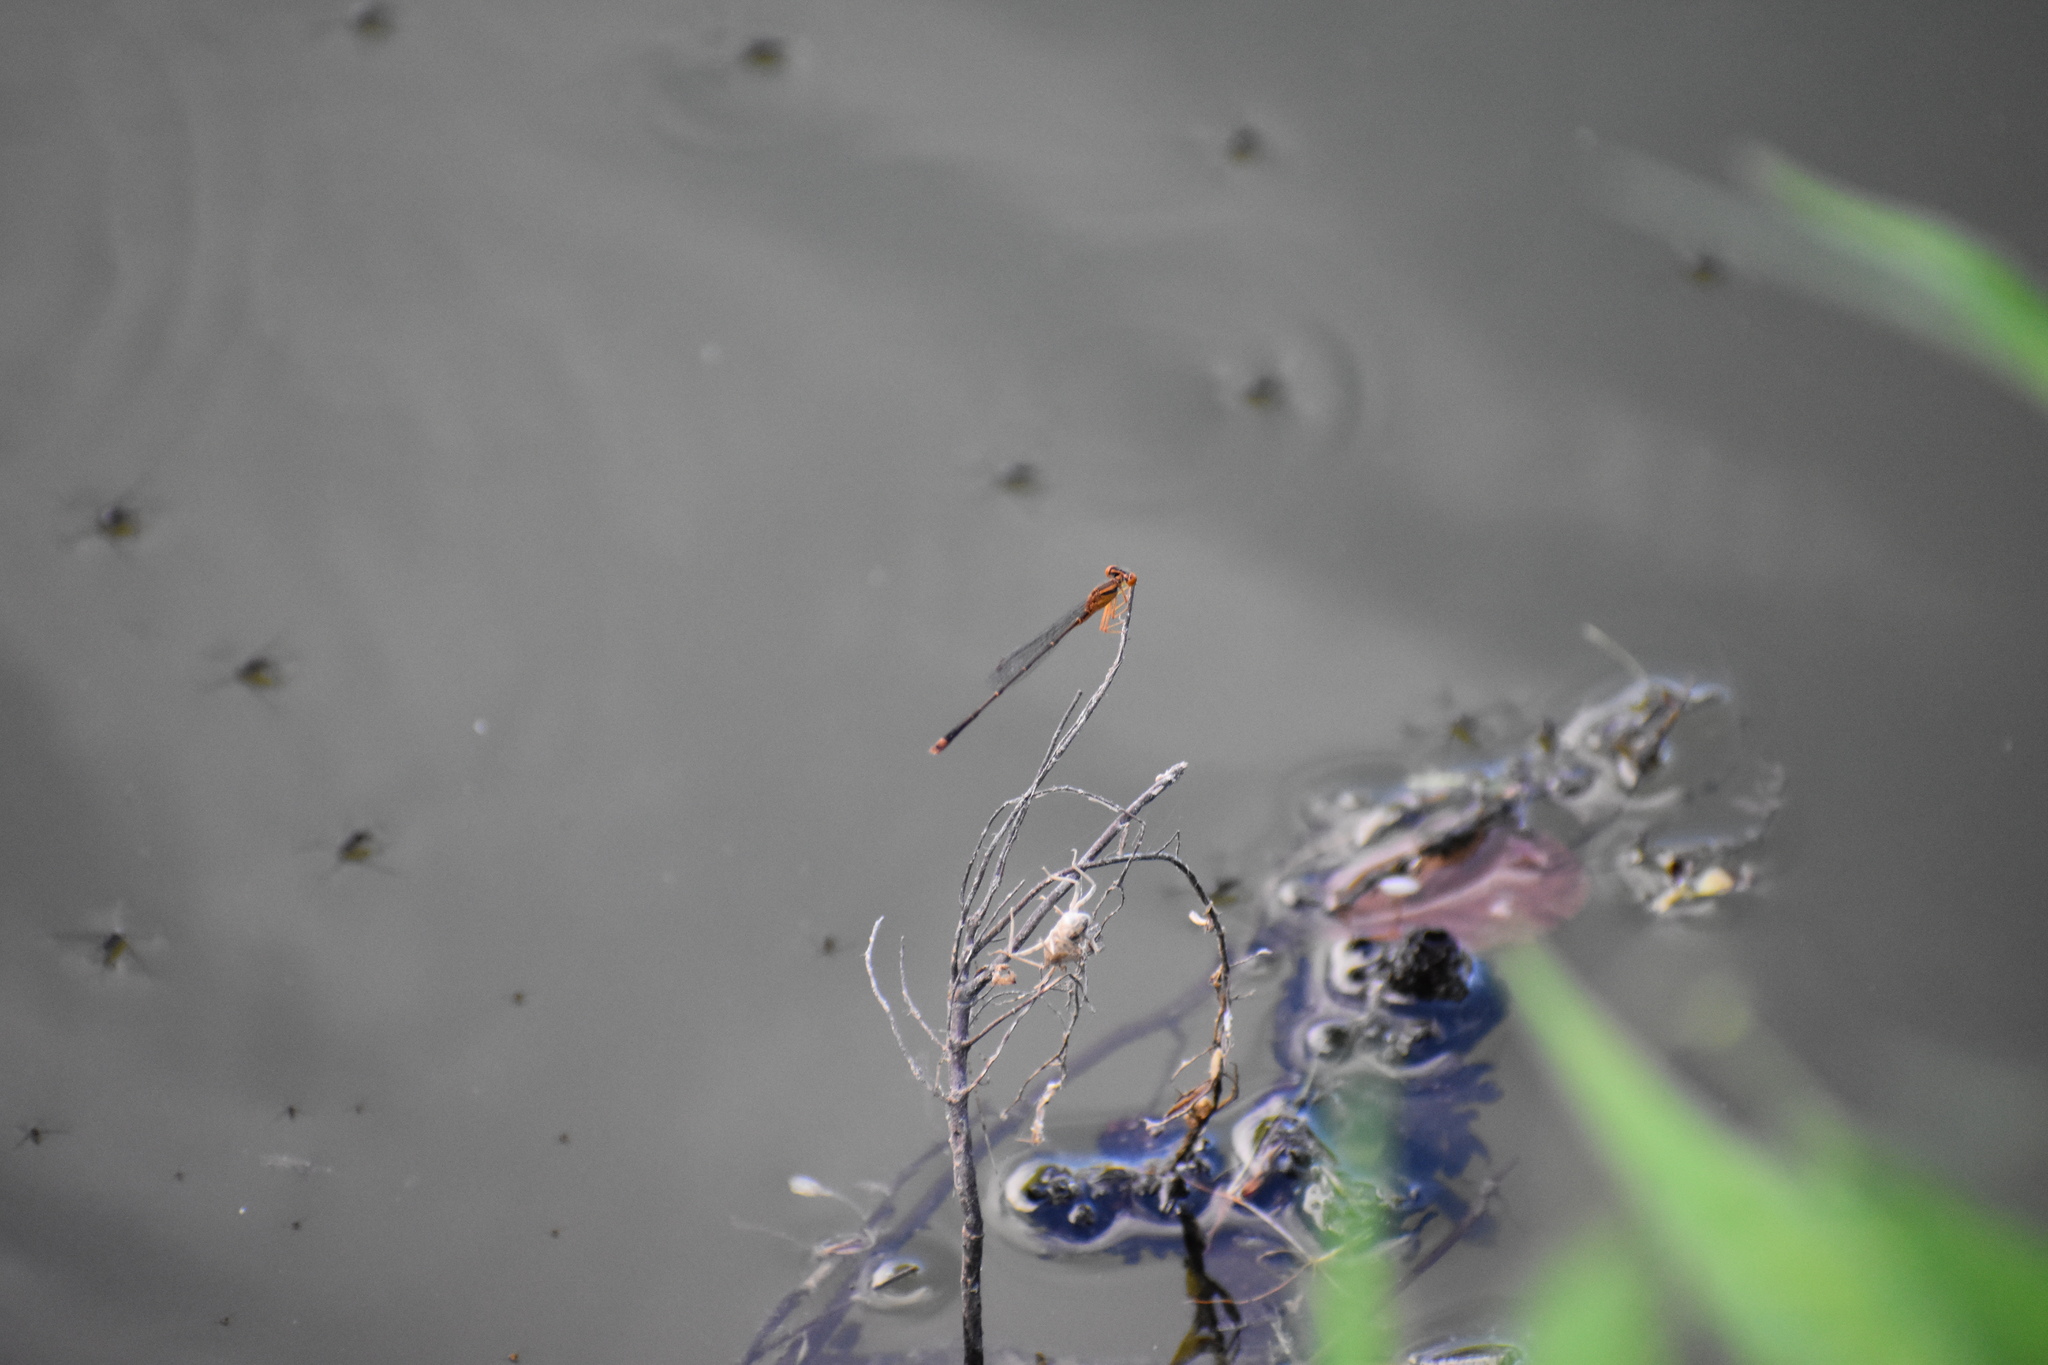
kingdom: Animalia
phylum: Arthropoda
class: Insecta
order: Odonata
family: Coenagrionidae
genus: Enallagma
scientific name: Enallagma signatum
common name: Orange bluet
